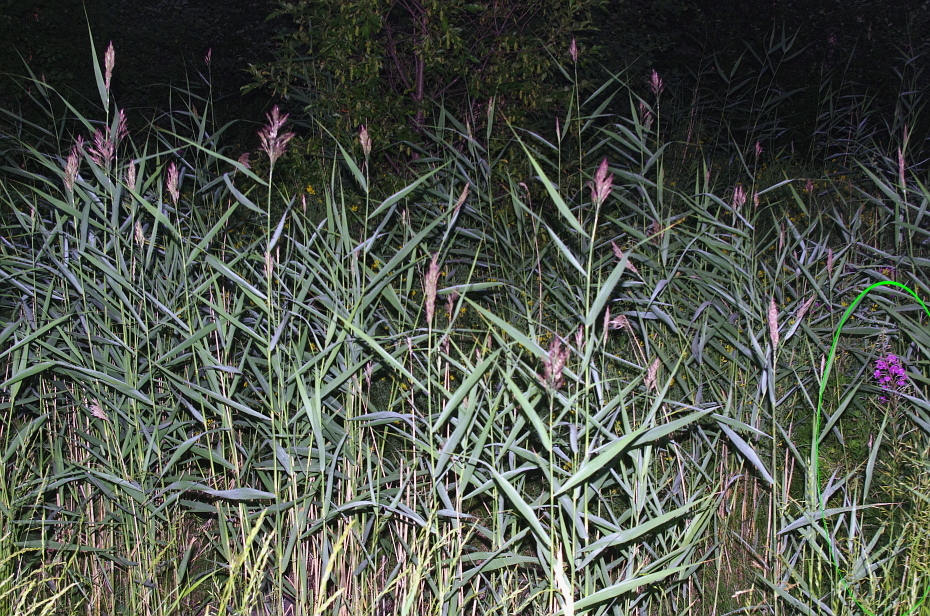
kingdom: Plantae
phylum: Tracheophyta
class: Magnoliopsida
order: Myrtales
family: Onagraceae
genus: Chamaenerion
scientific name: Chamaenerion angustifolium
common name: Fireweed
